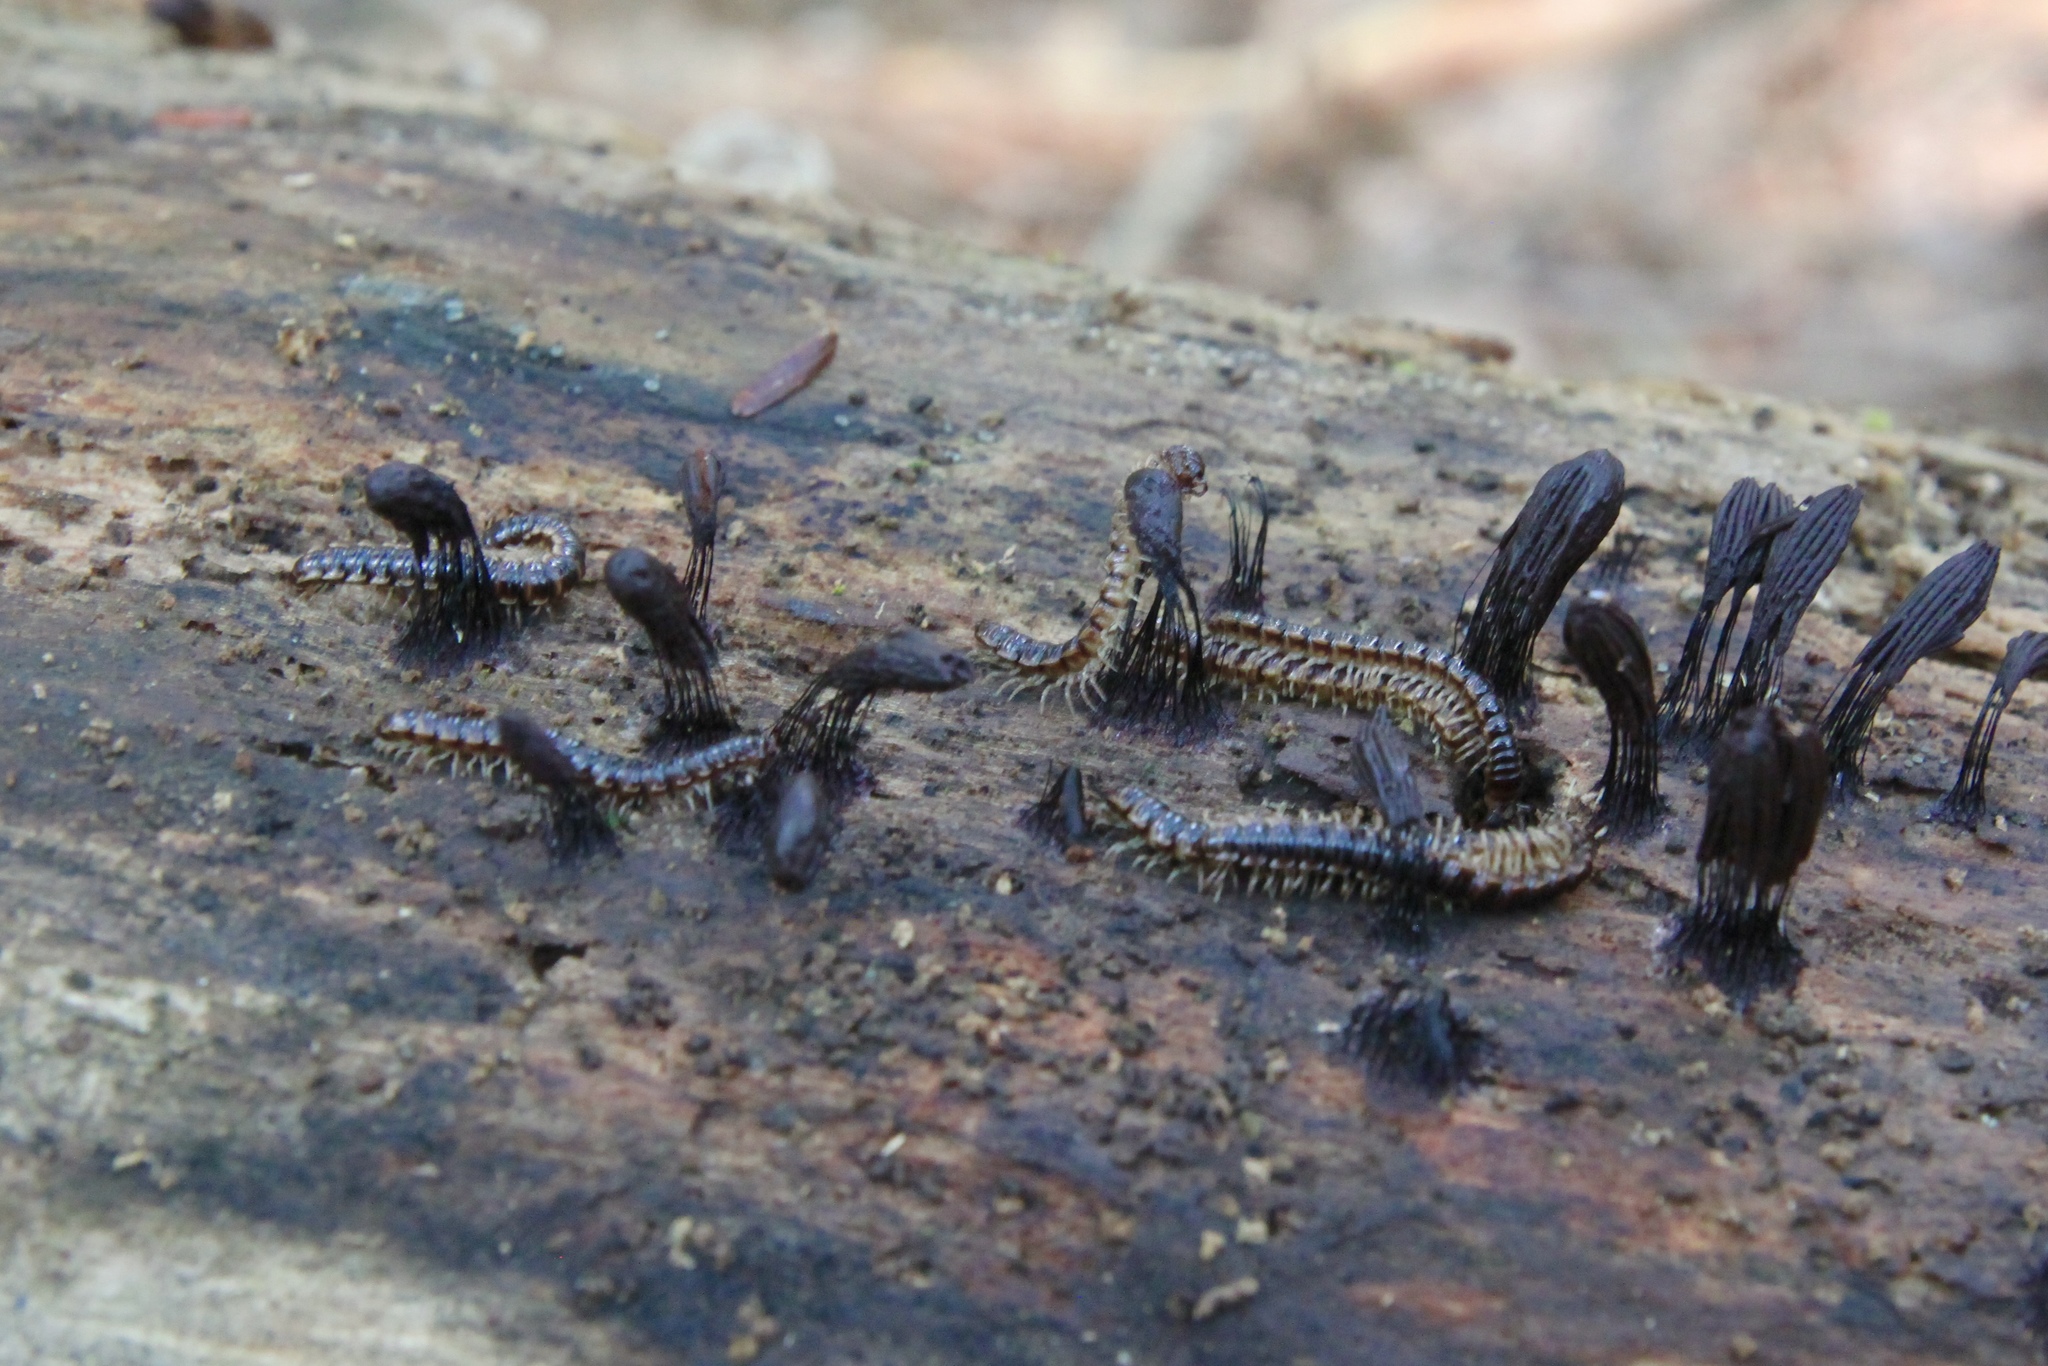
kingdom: Animalia
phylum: Arthropoda
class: Diplopoda
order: Polydesmida
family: Paradoxosomatidae
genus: Oxidus
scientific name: Oxidus gracilis
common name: Greenhouse millipede
